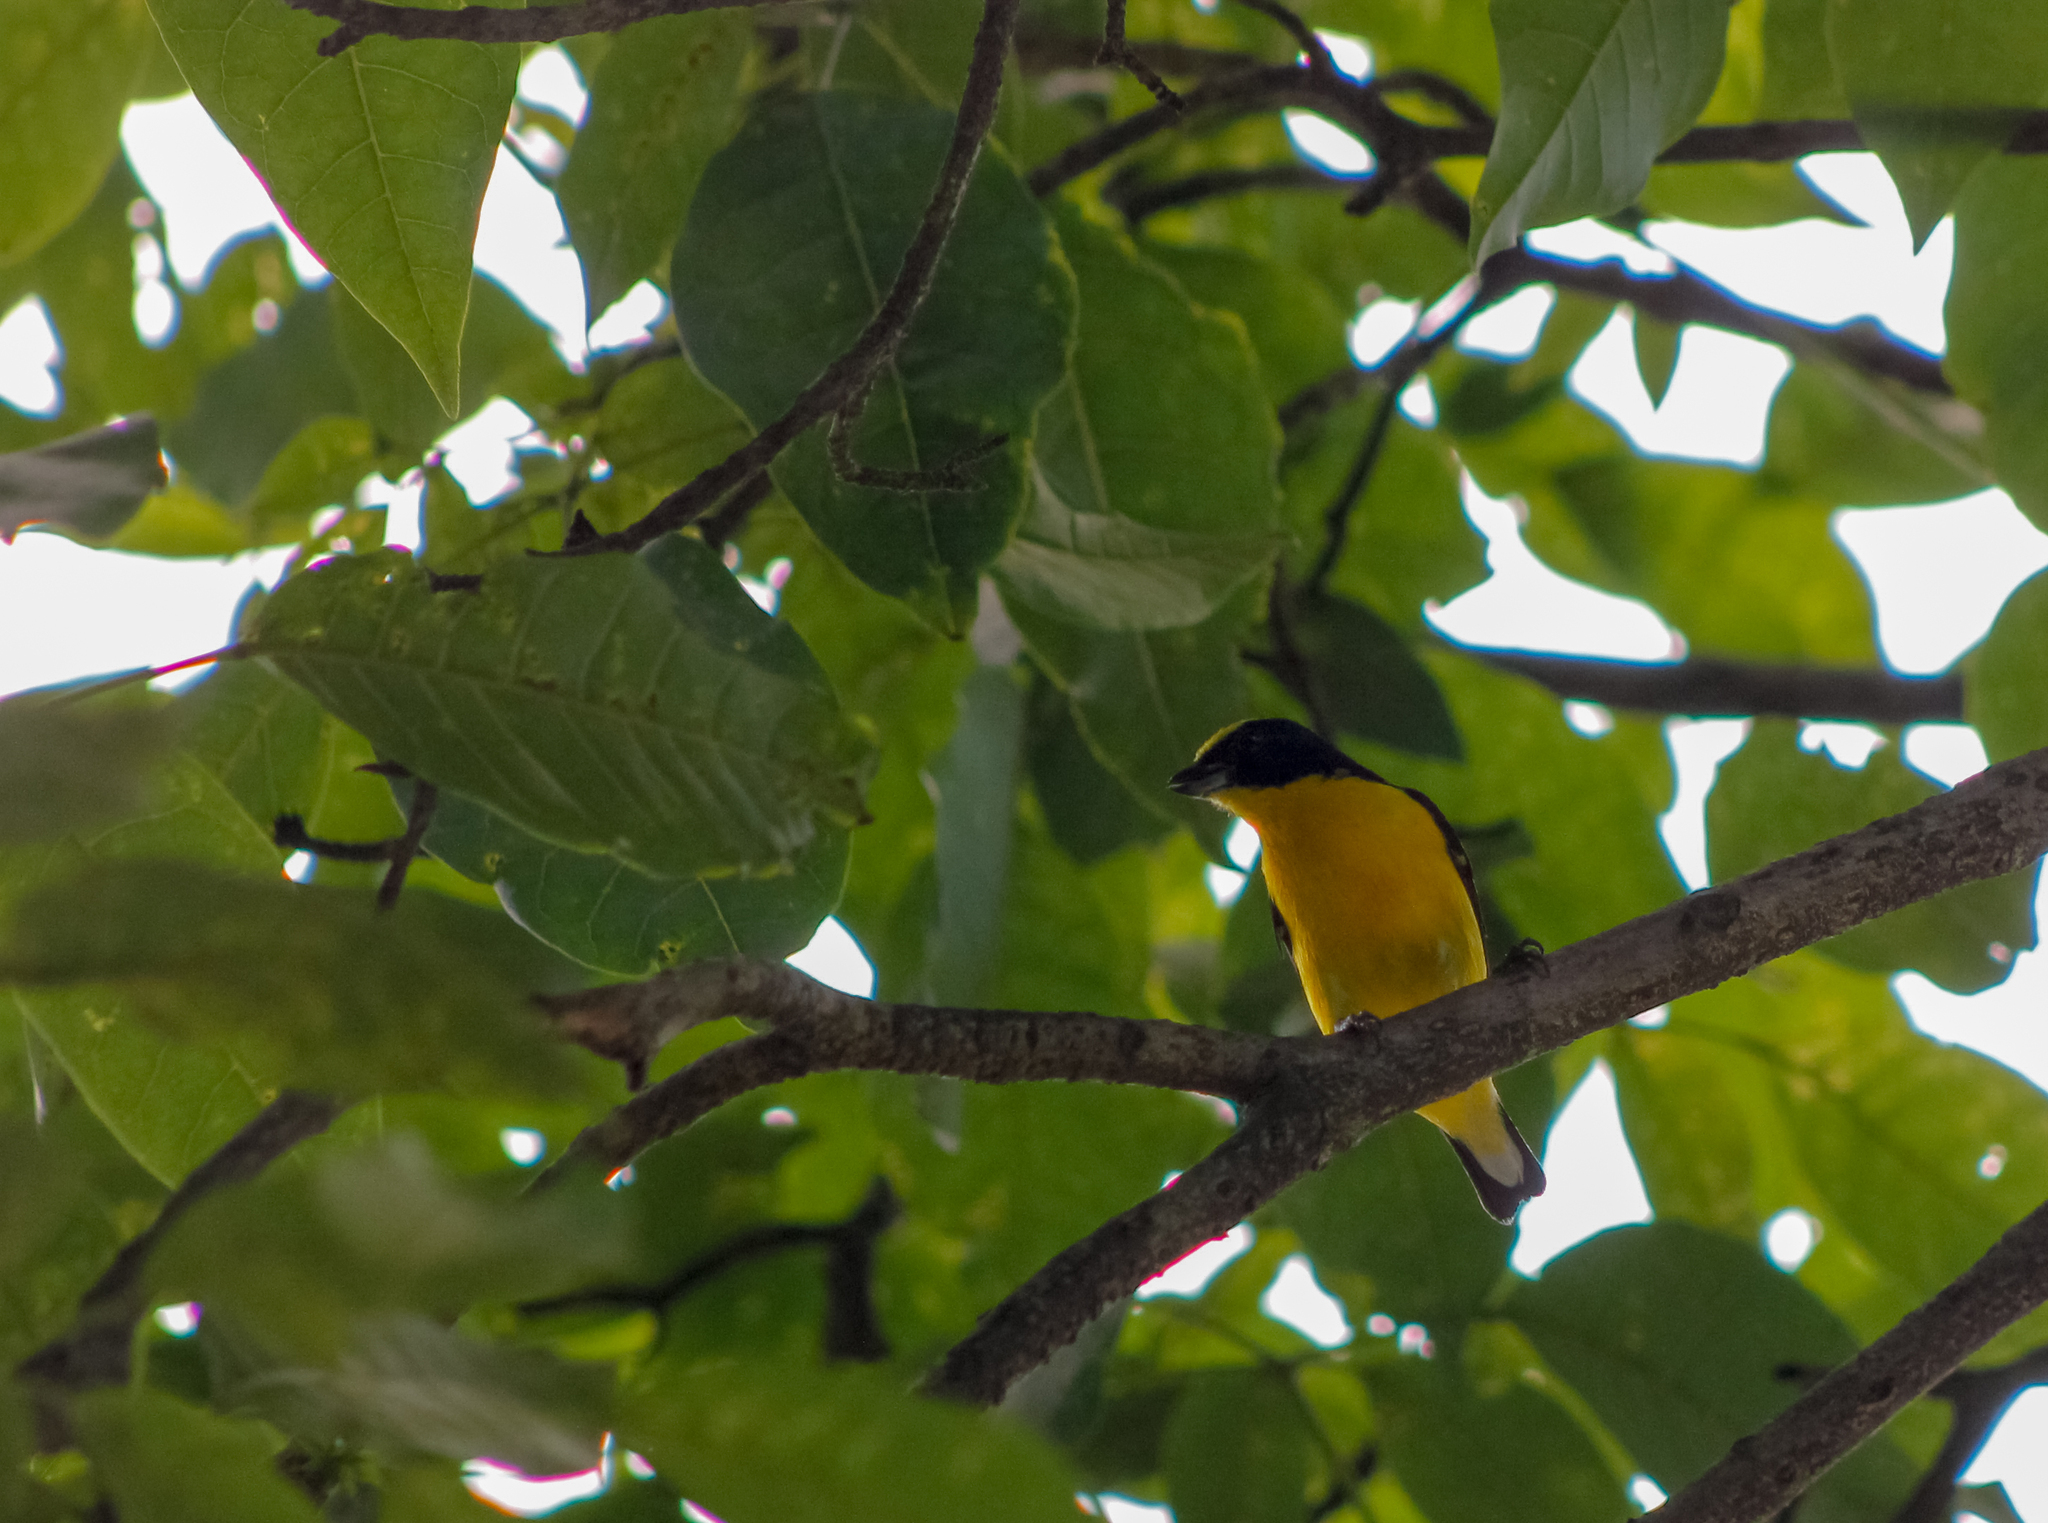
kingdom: Animalia
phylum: Chordata
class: Aves
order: Passeriformes
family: Fringillidae
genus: Euphonia
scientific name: Euphonia laniirostris
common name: Thick-billed euphonia
